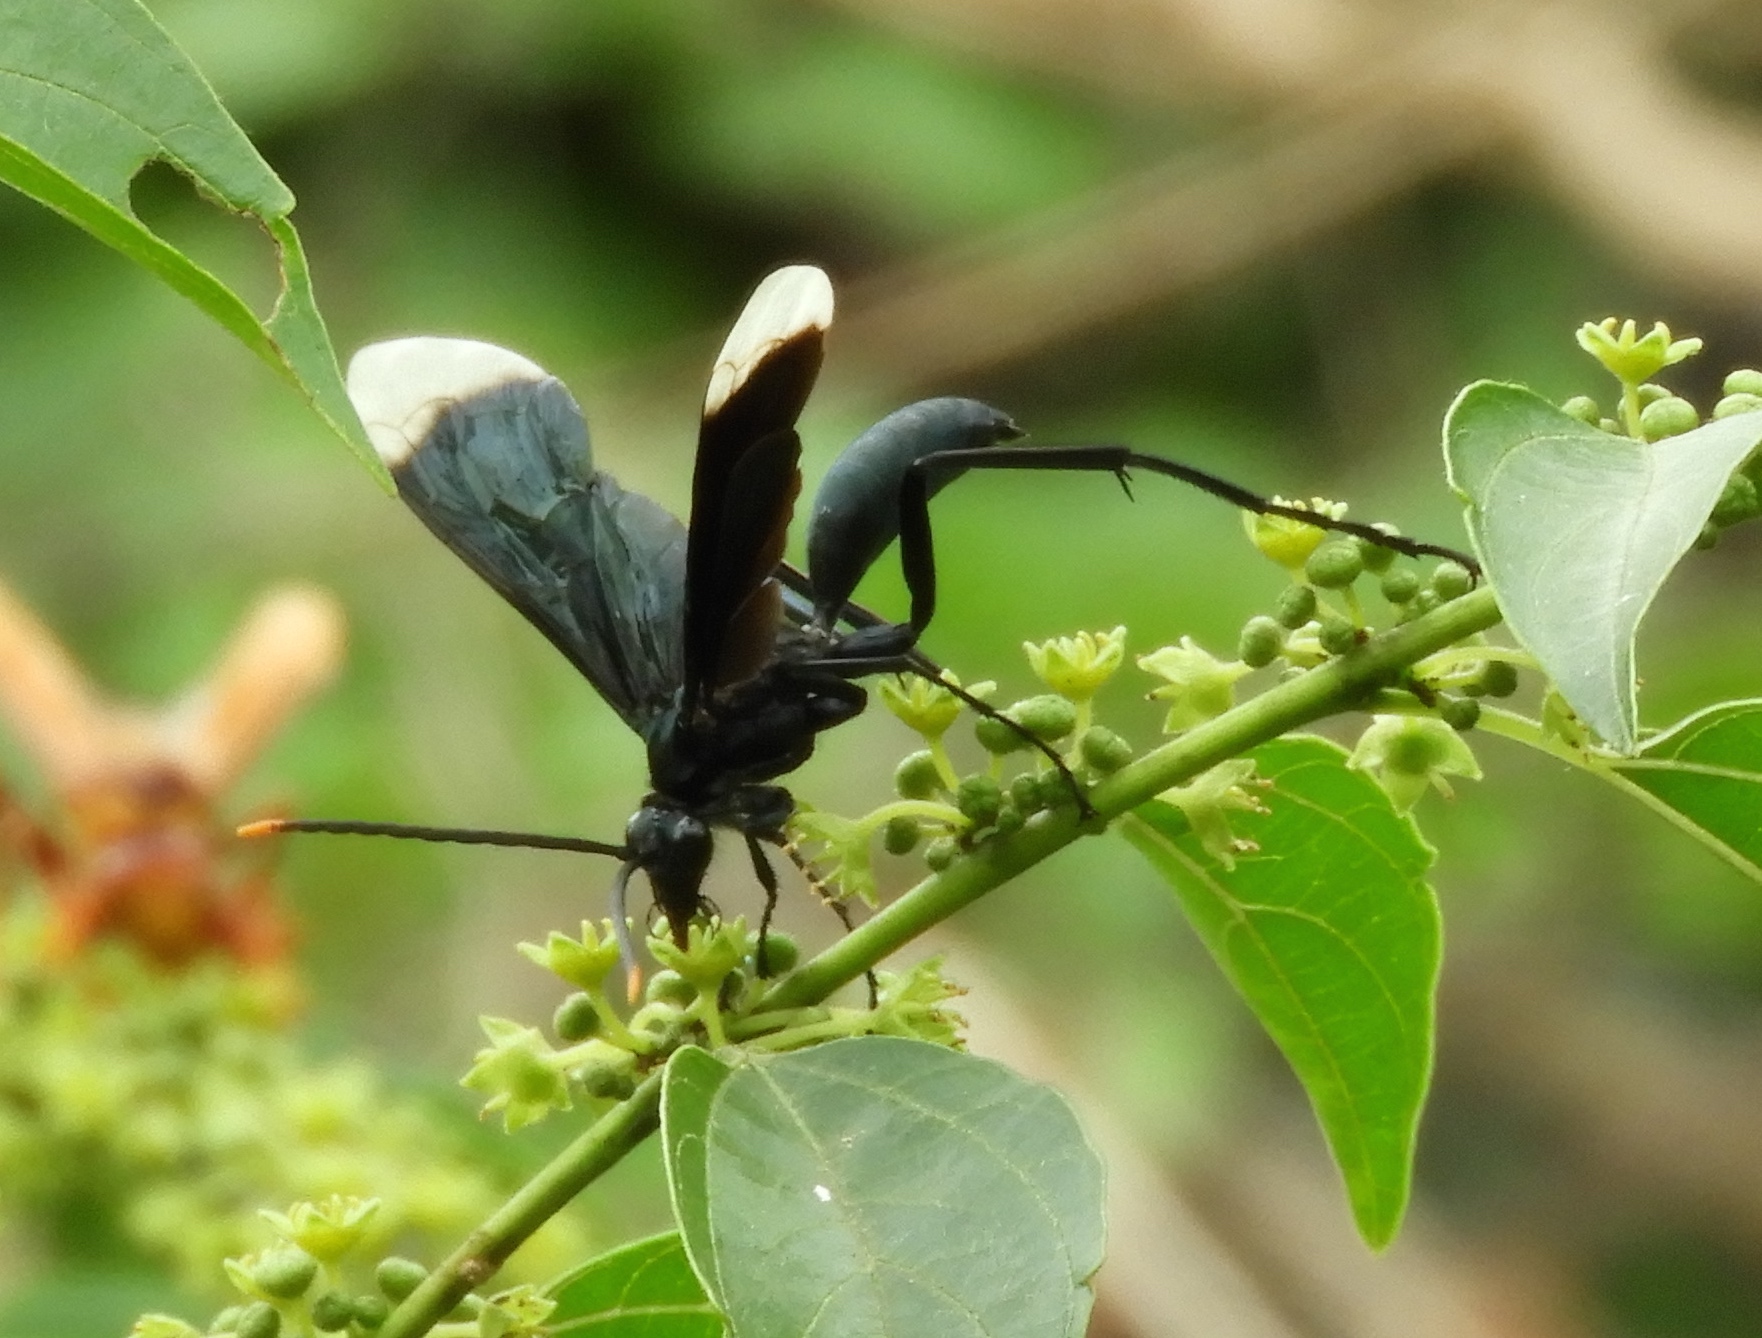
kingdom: Animalia
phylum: Arthropoda
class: Insecta
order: Hymenoptera
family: Pompilidae
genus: Pepsis
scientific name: Pepsis
